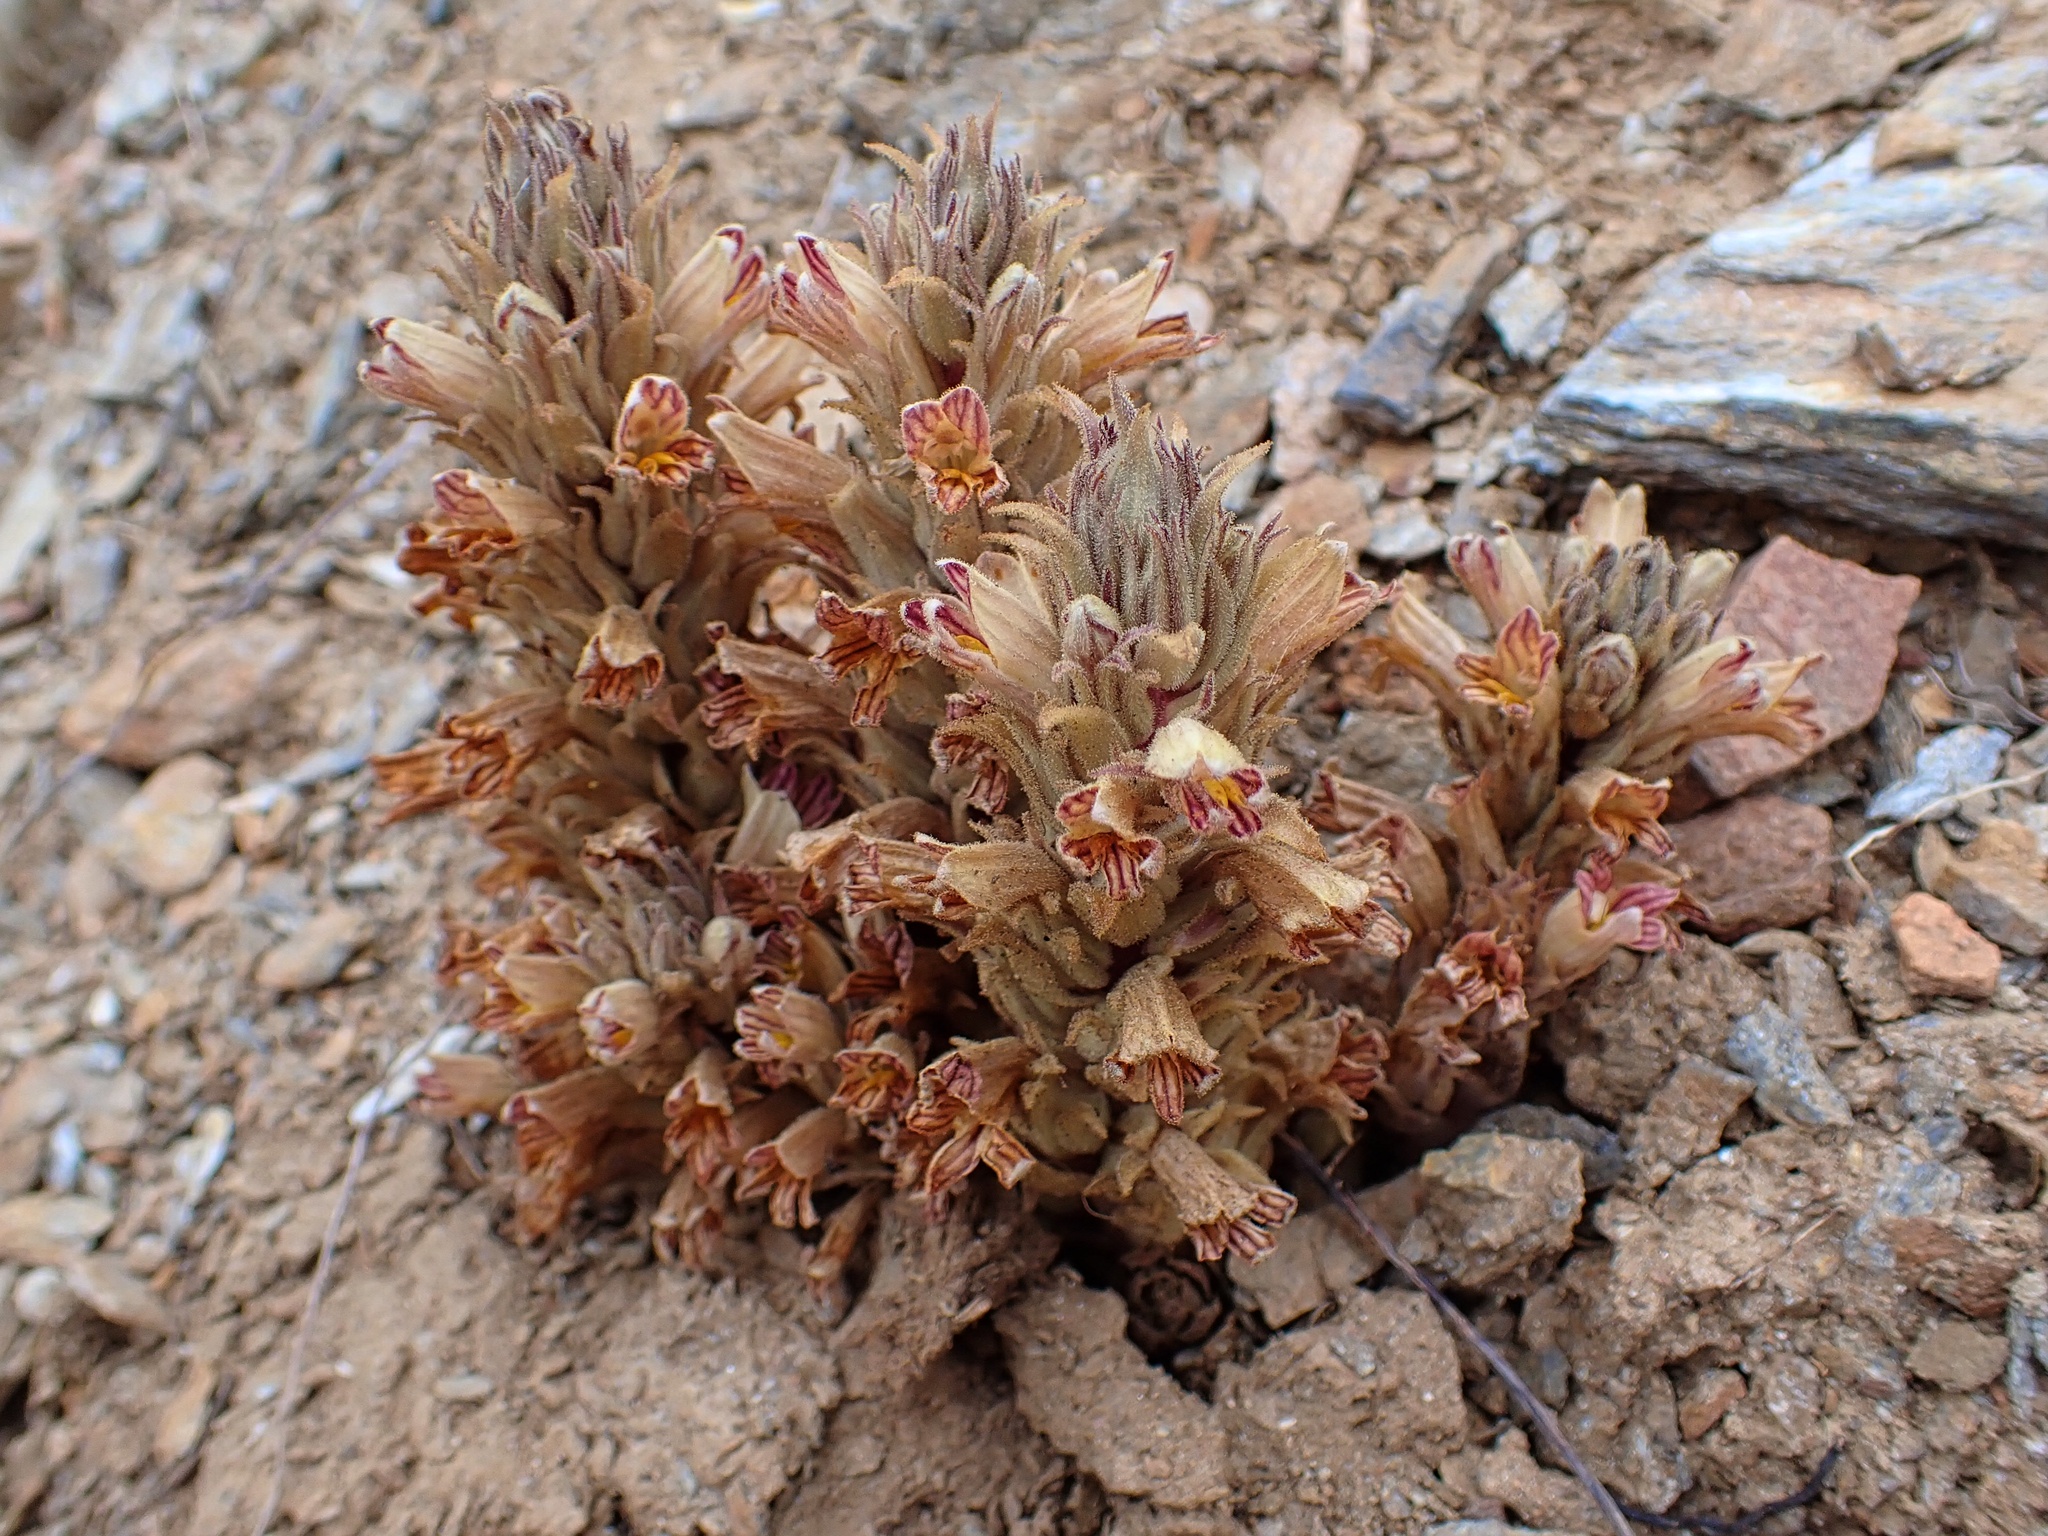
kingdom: Plantae
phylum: Tracheophyta
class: Magnoliopsida
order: Lamiales
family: Orobanchaceae
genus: Aphyllon
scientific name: Aphyllon parishii
